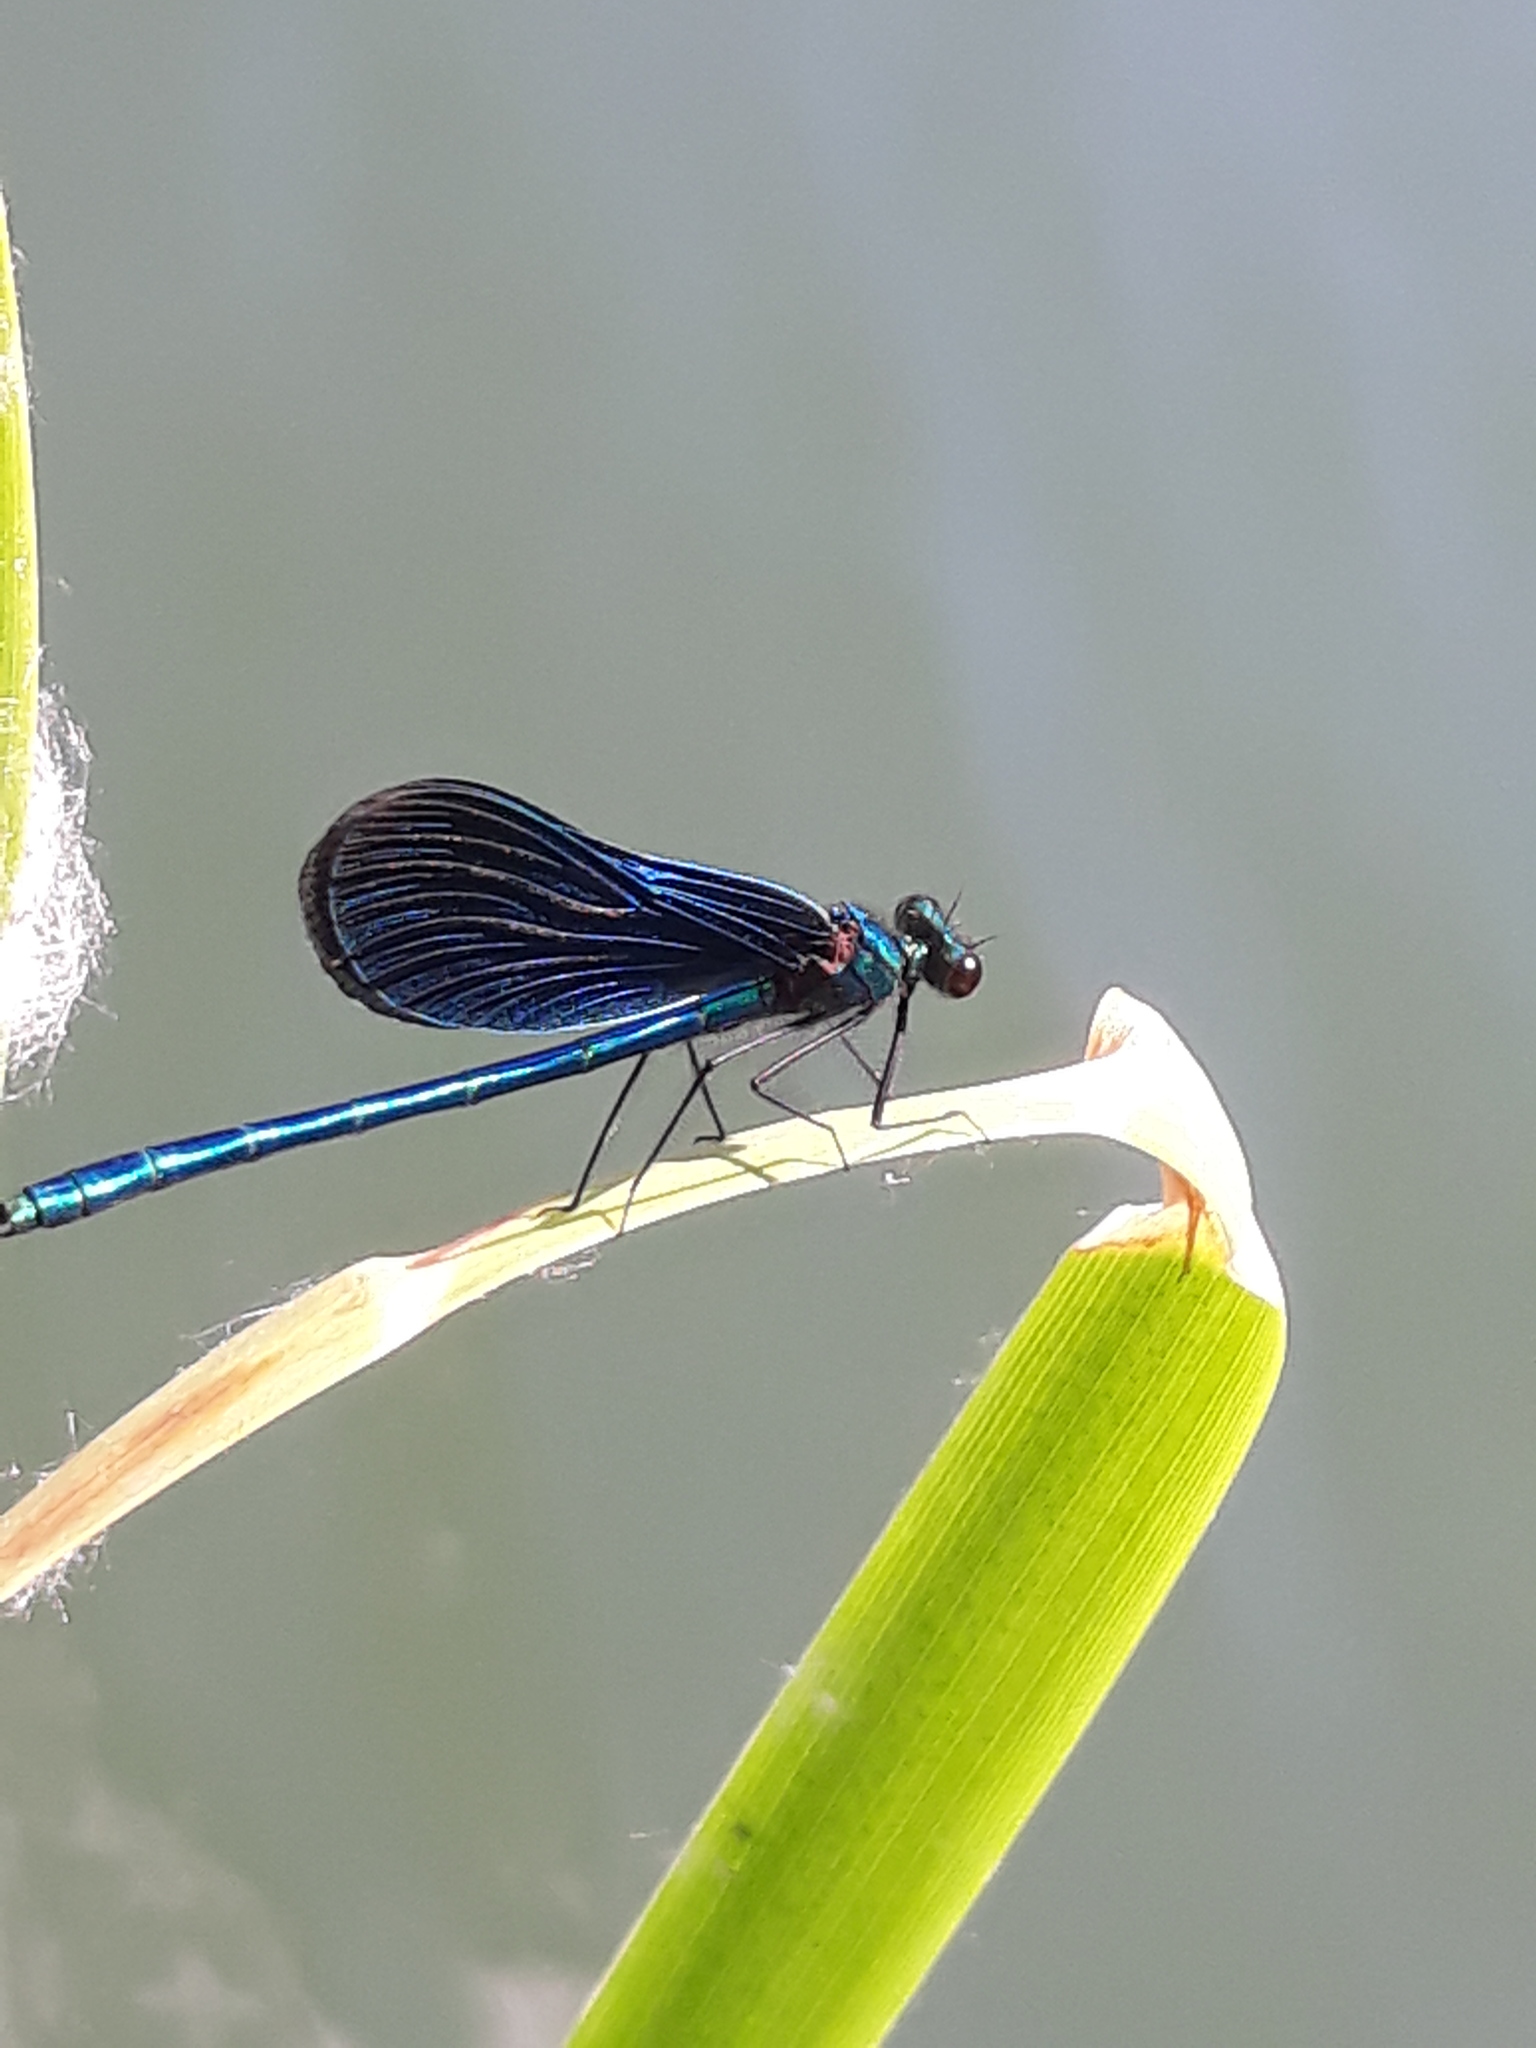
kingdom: Animalia
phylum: Arthropoda
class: Insecta
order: Odonata
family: Calopterygidae
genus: Calopteryx
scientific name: Calopteryx virgo
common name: Beautiful demoiselle
